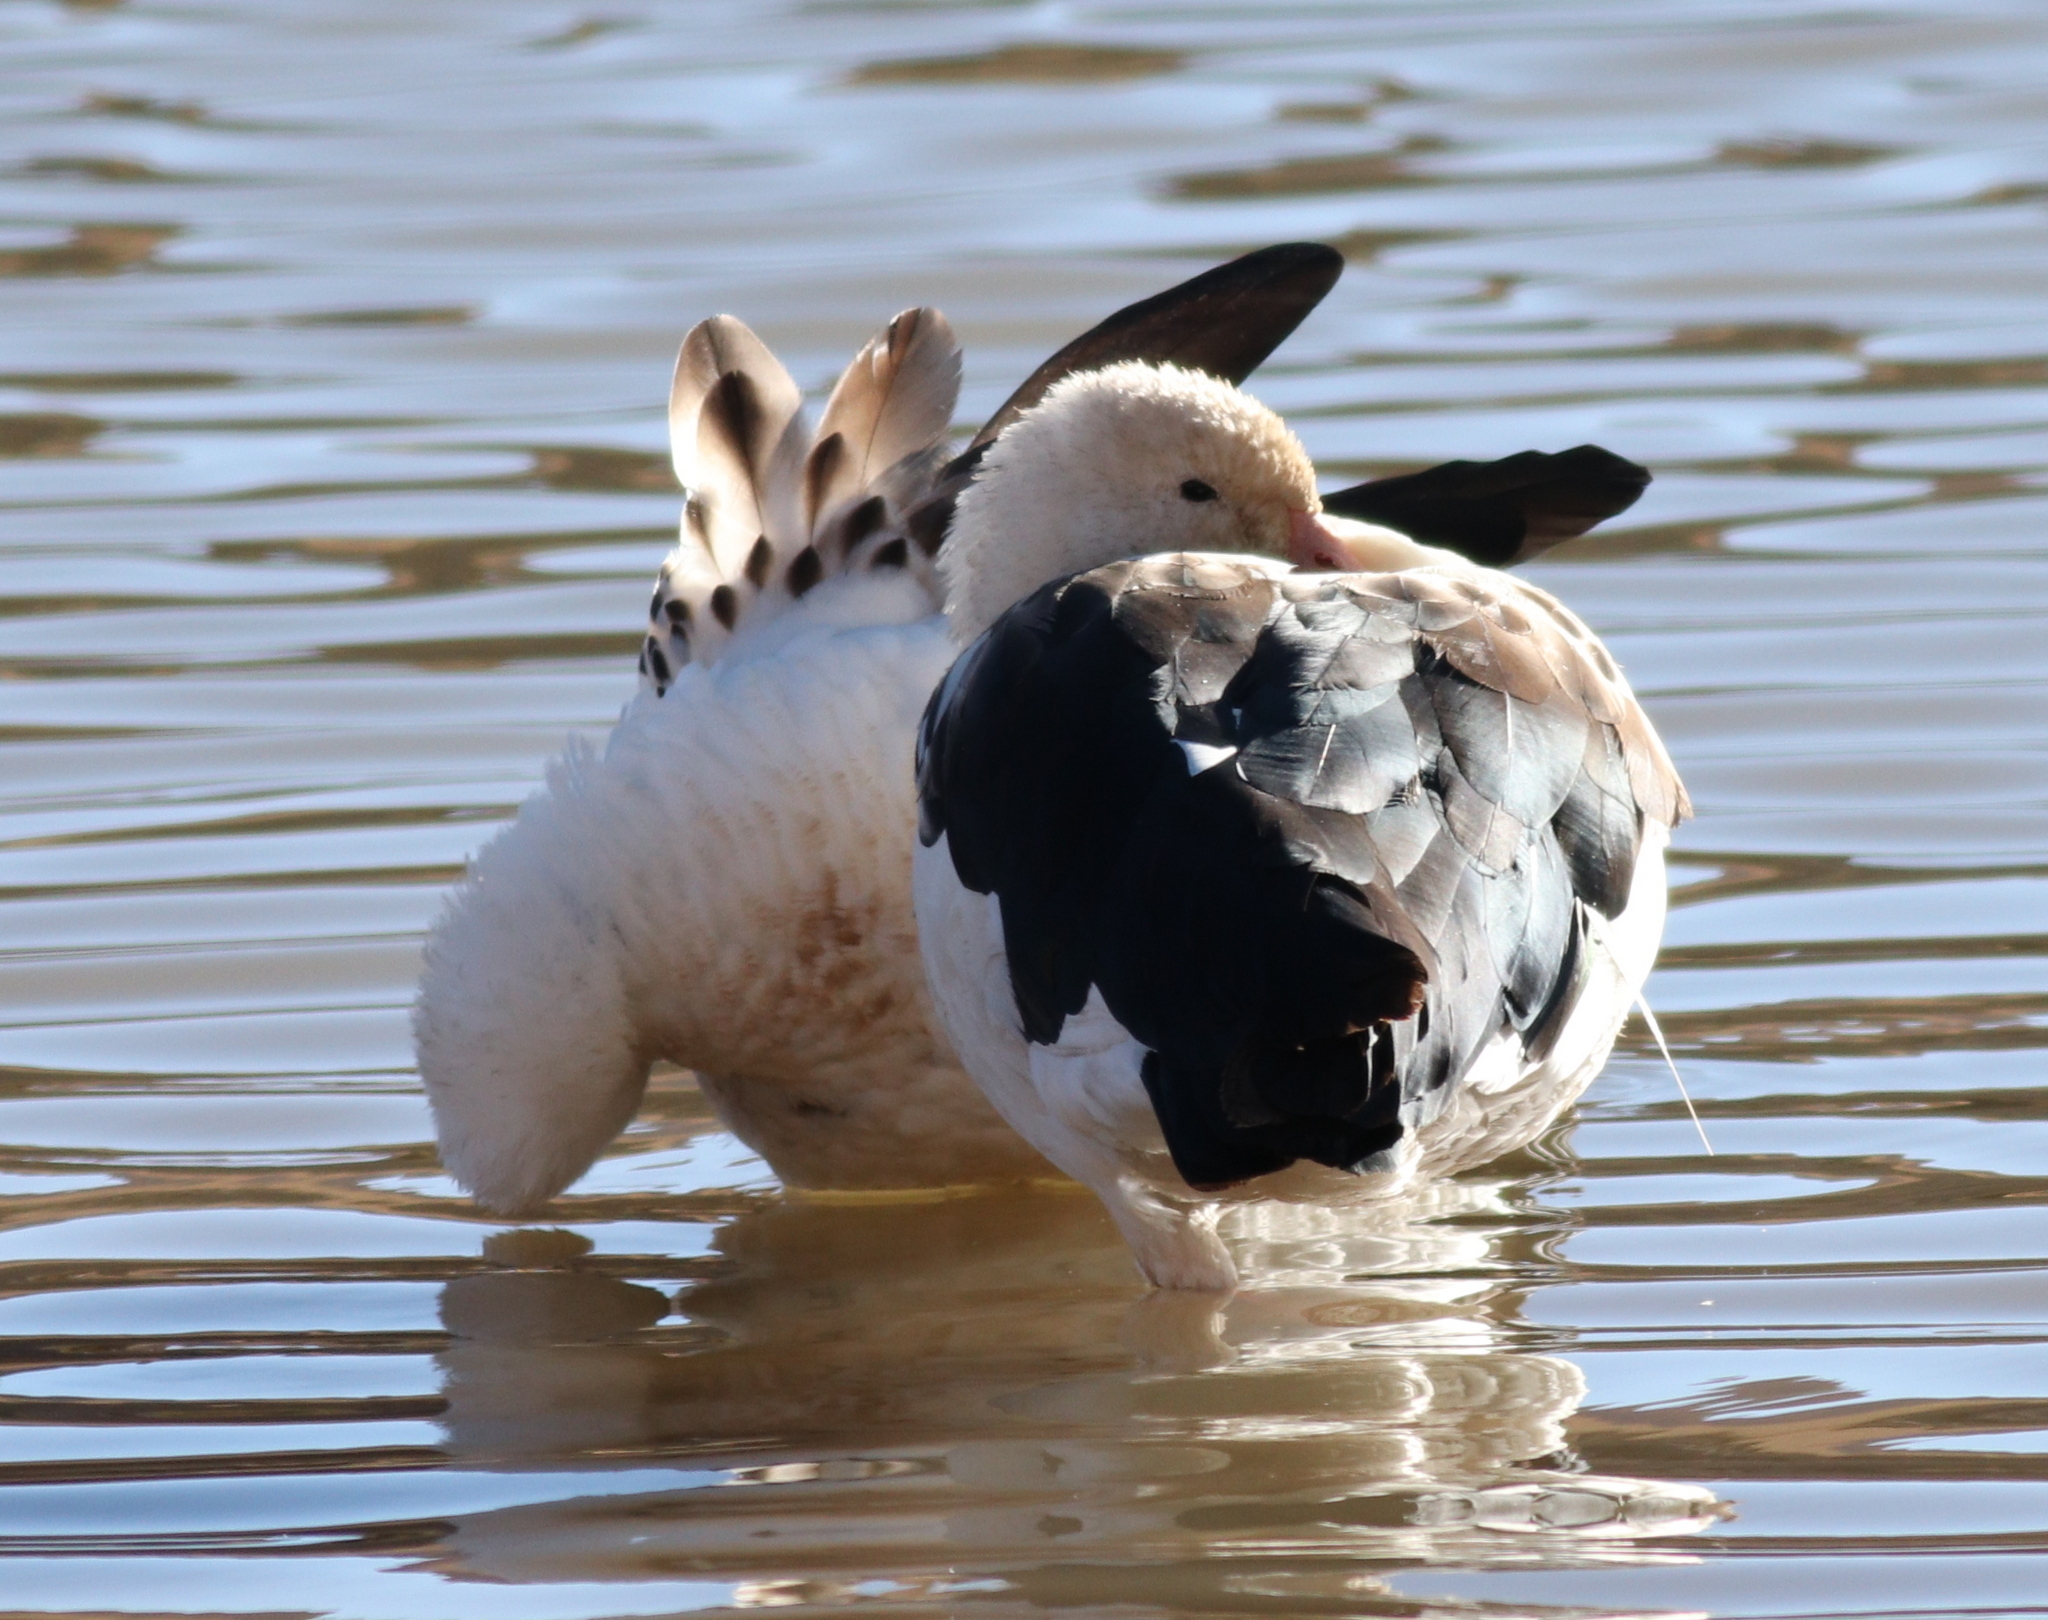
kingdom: Animalia
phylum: Chordata
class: Aves
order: Anseriformes
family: Anatidae
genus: Chloephaga
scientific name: Chloephaga melanoptera
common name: Andean goose
